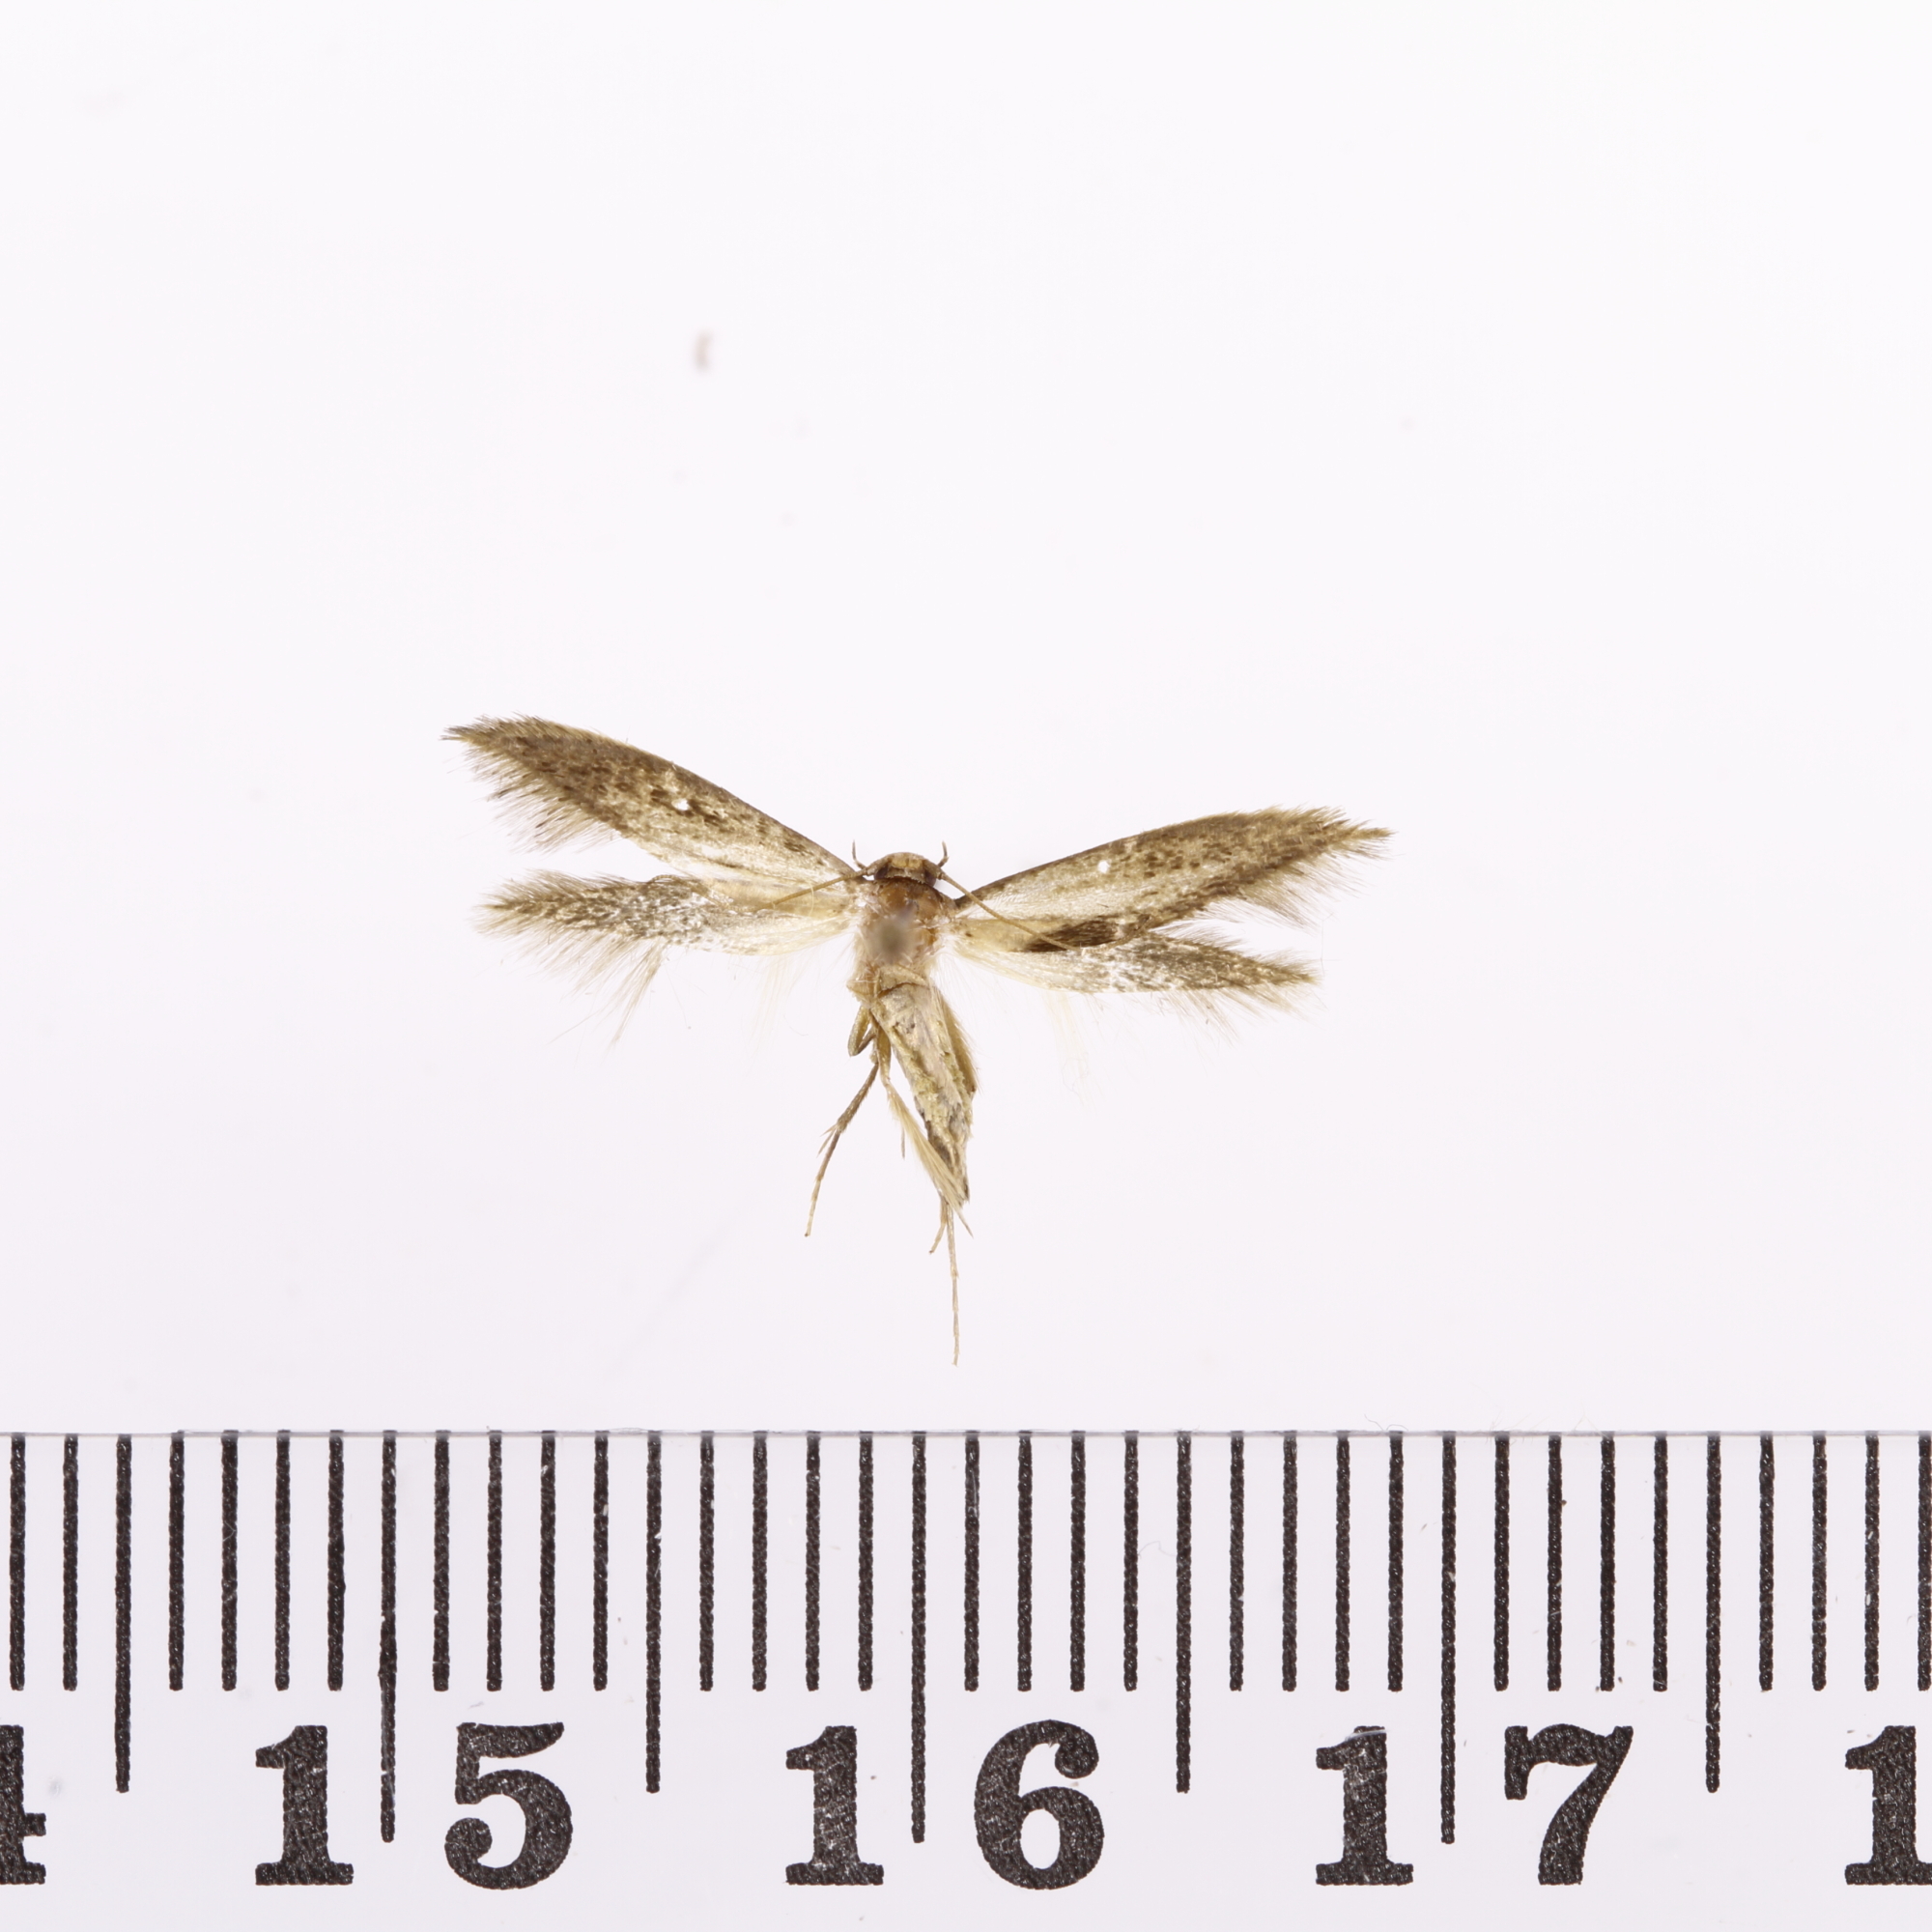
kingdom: Animalia
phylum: Arthropoda
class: Insecta
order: Lepidoptera
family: Tineidae
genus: Opogona
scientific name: Opogona omoscopa
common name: Moth
